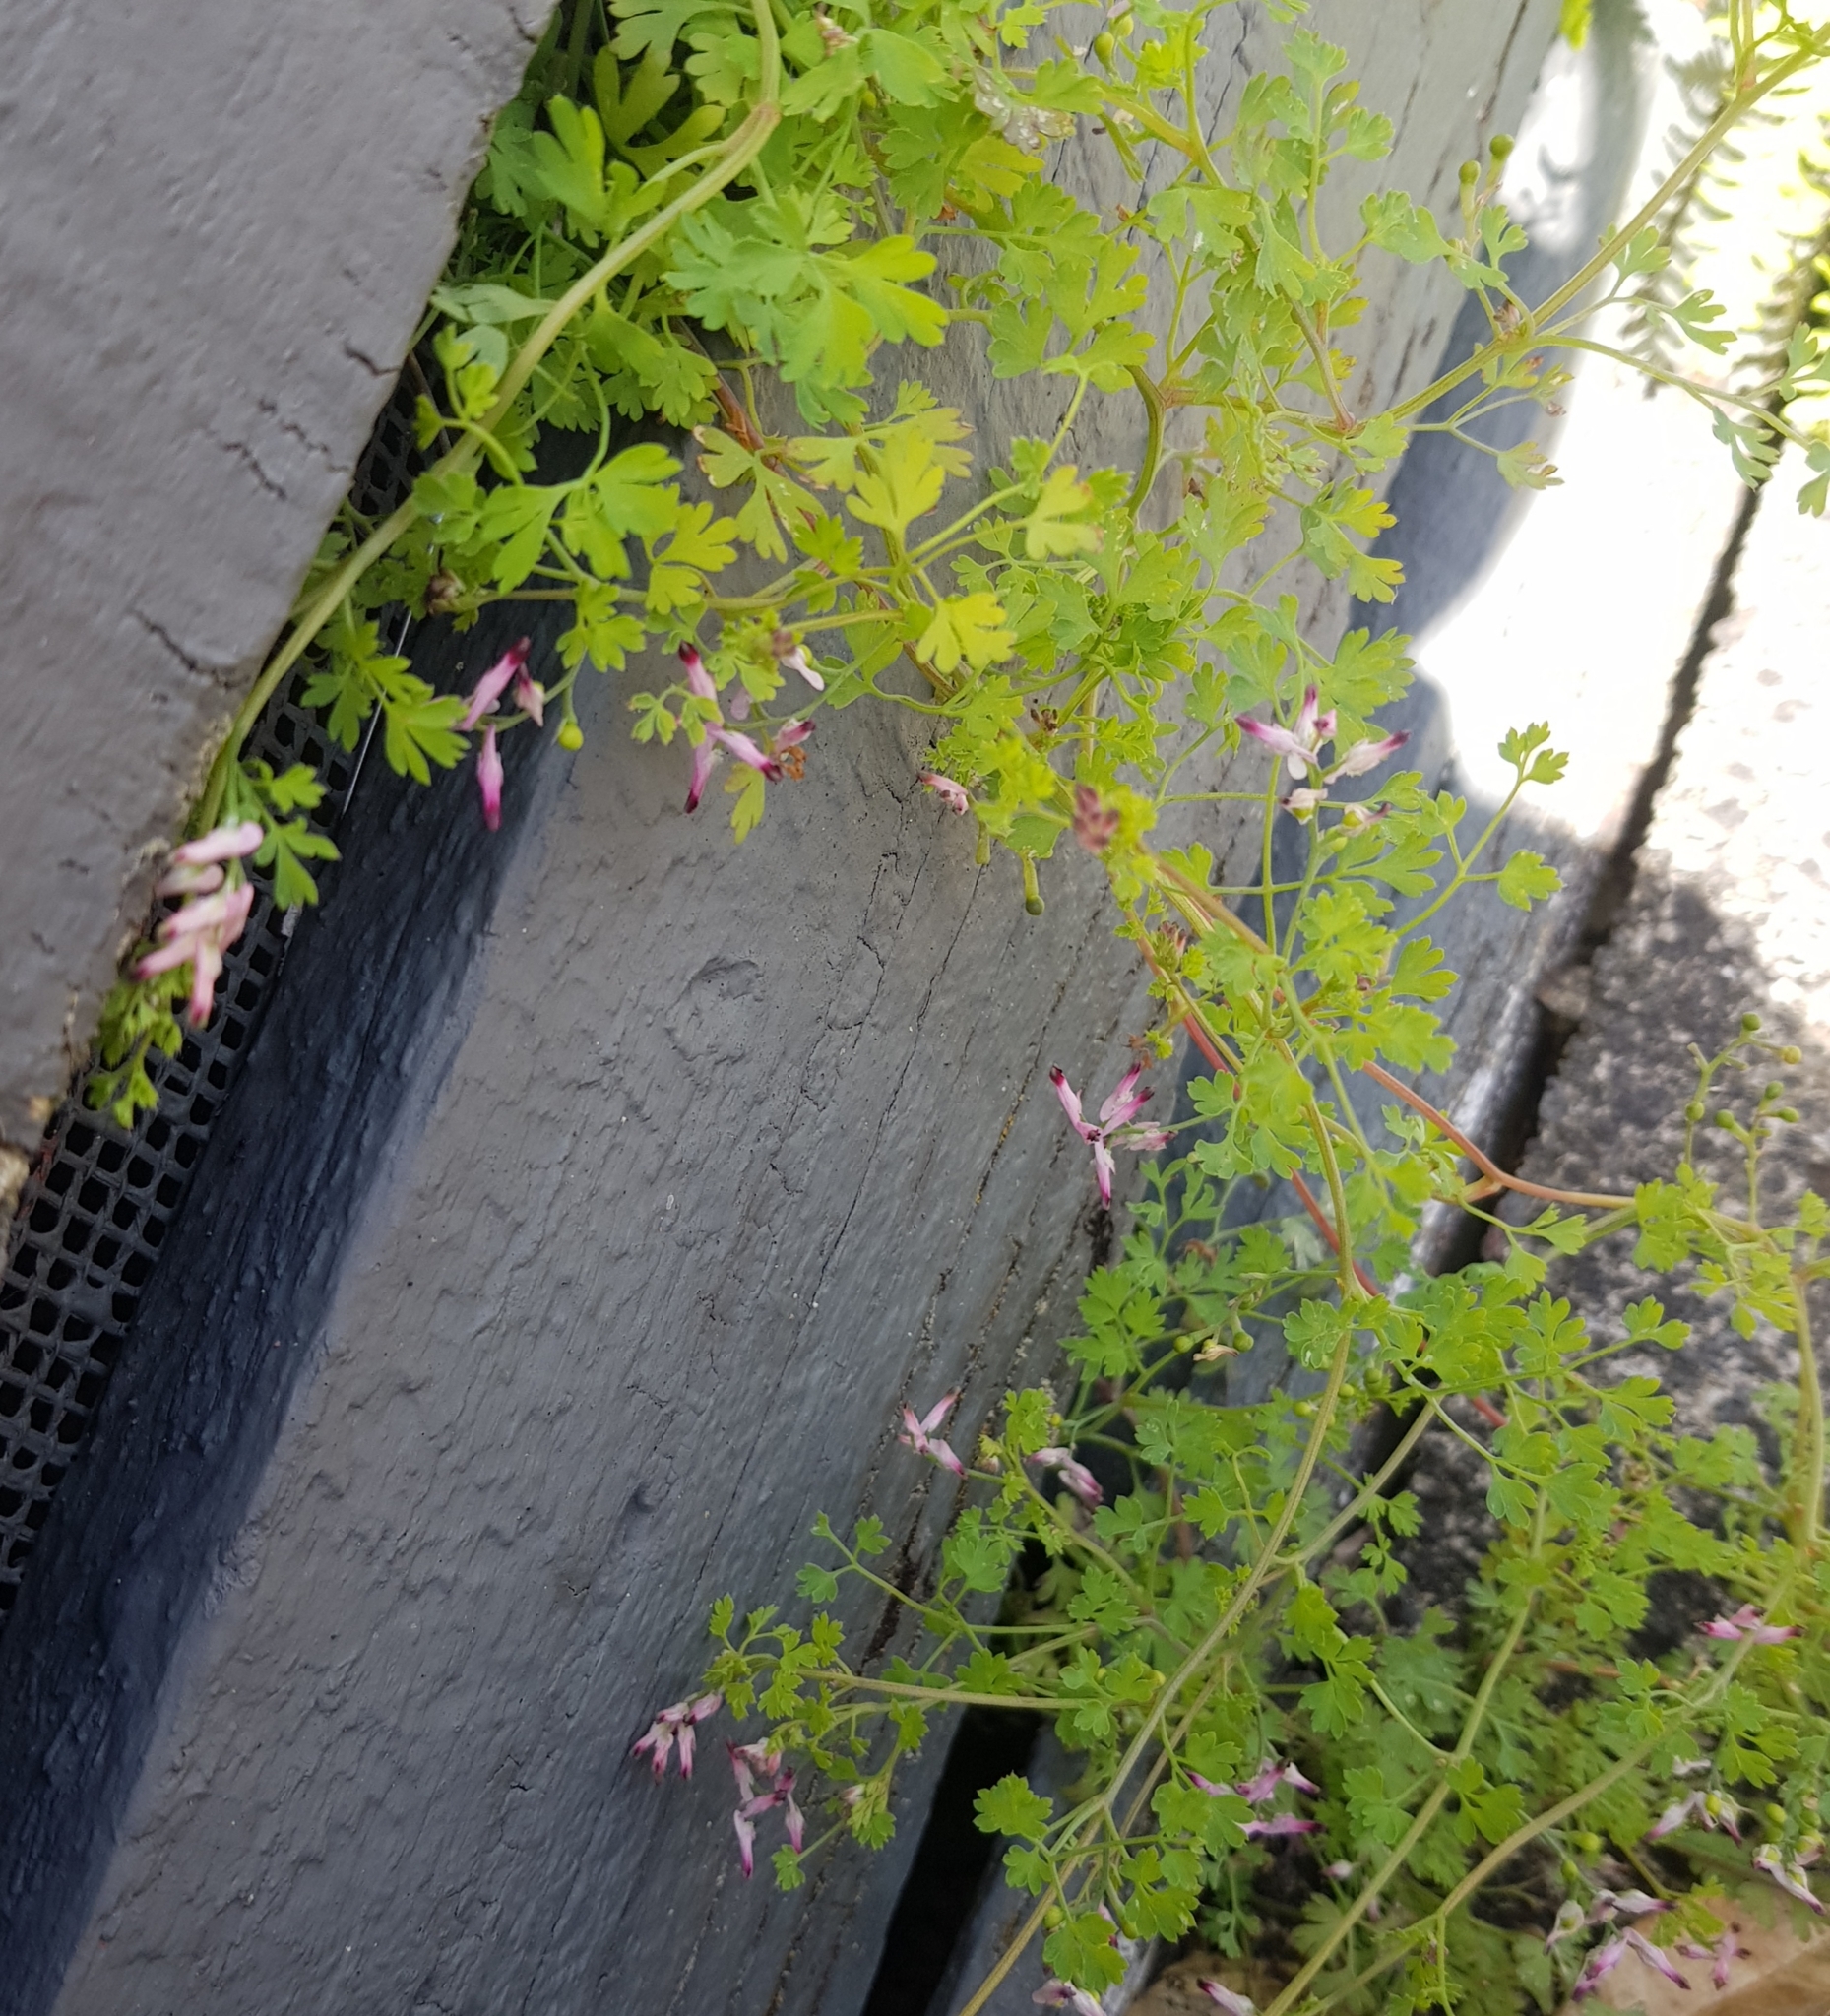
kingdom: Plantae
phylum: Tracheophyta
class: Magnoliopsida
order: Ranunculales
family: Papaveraceae
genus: Fumaria
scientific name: Fumaria muralis
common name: Common ramping-fumitory
